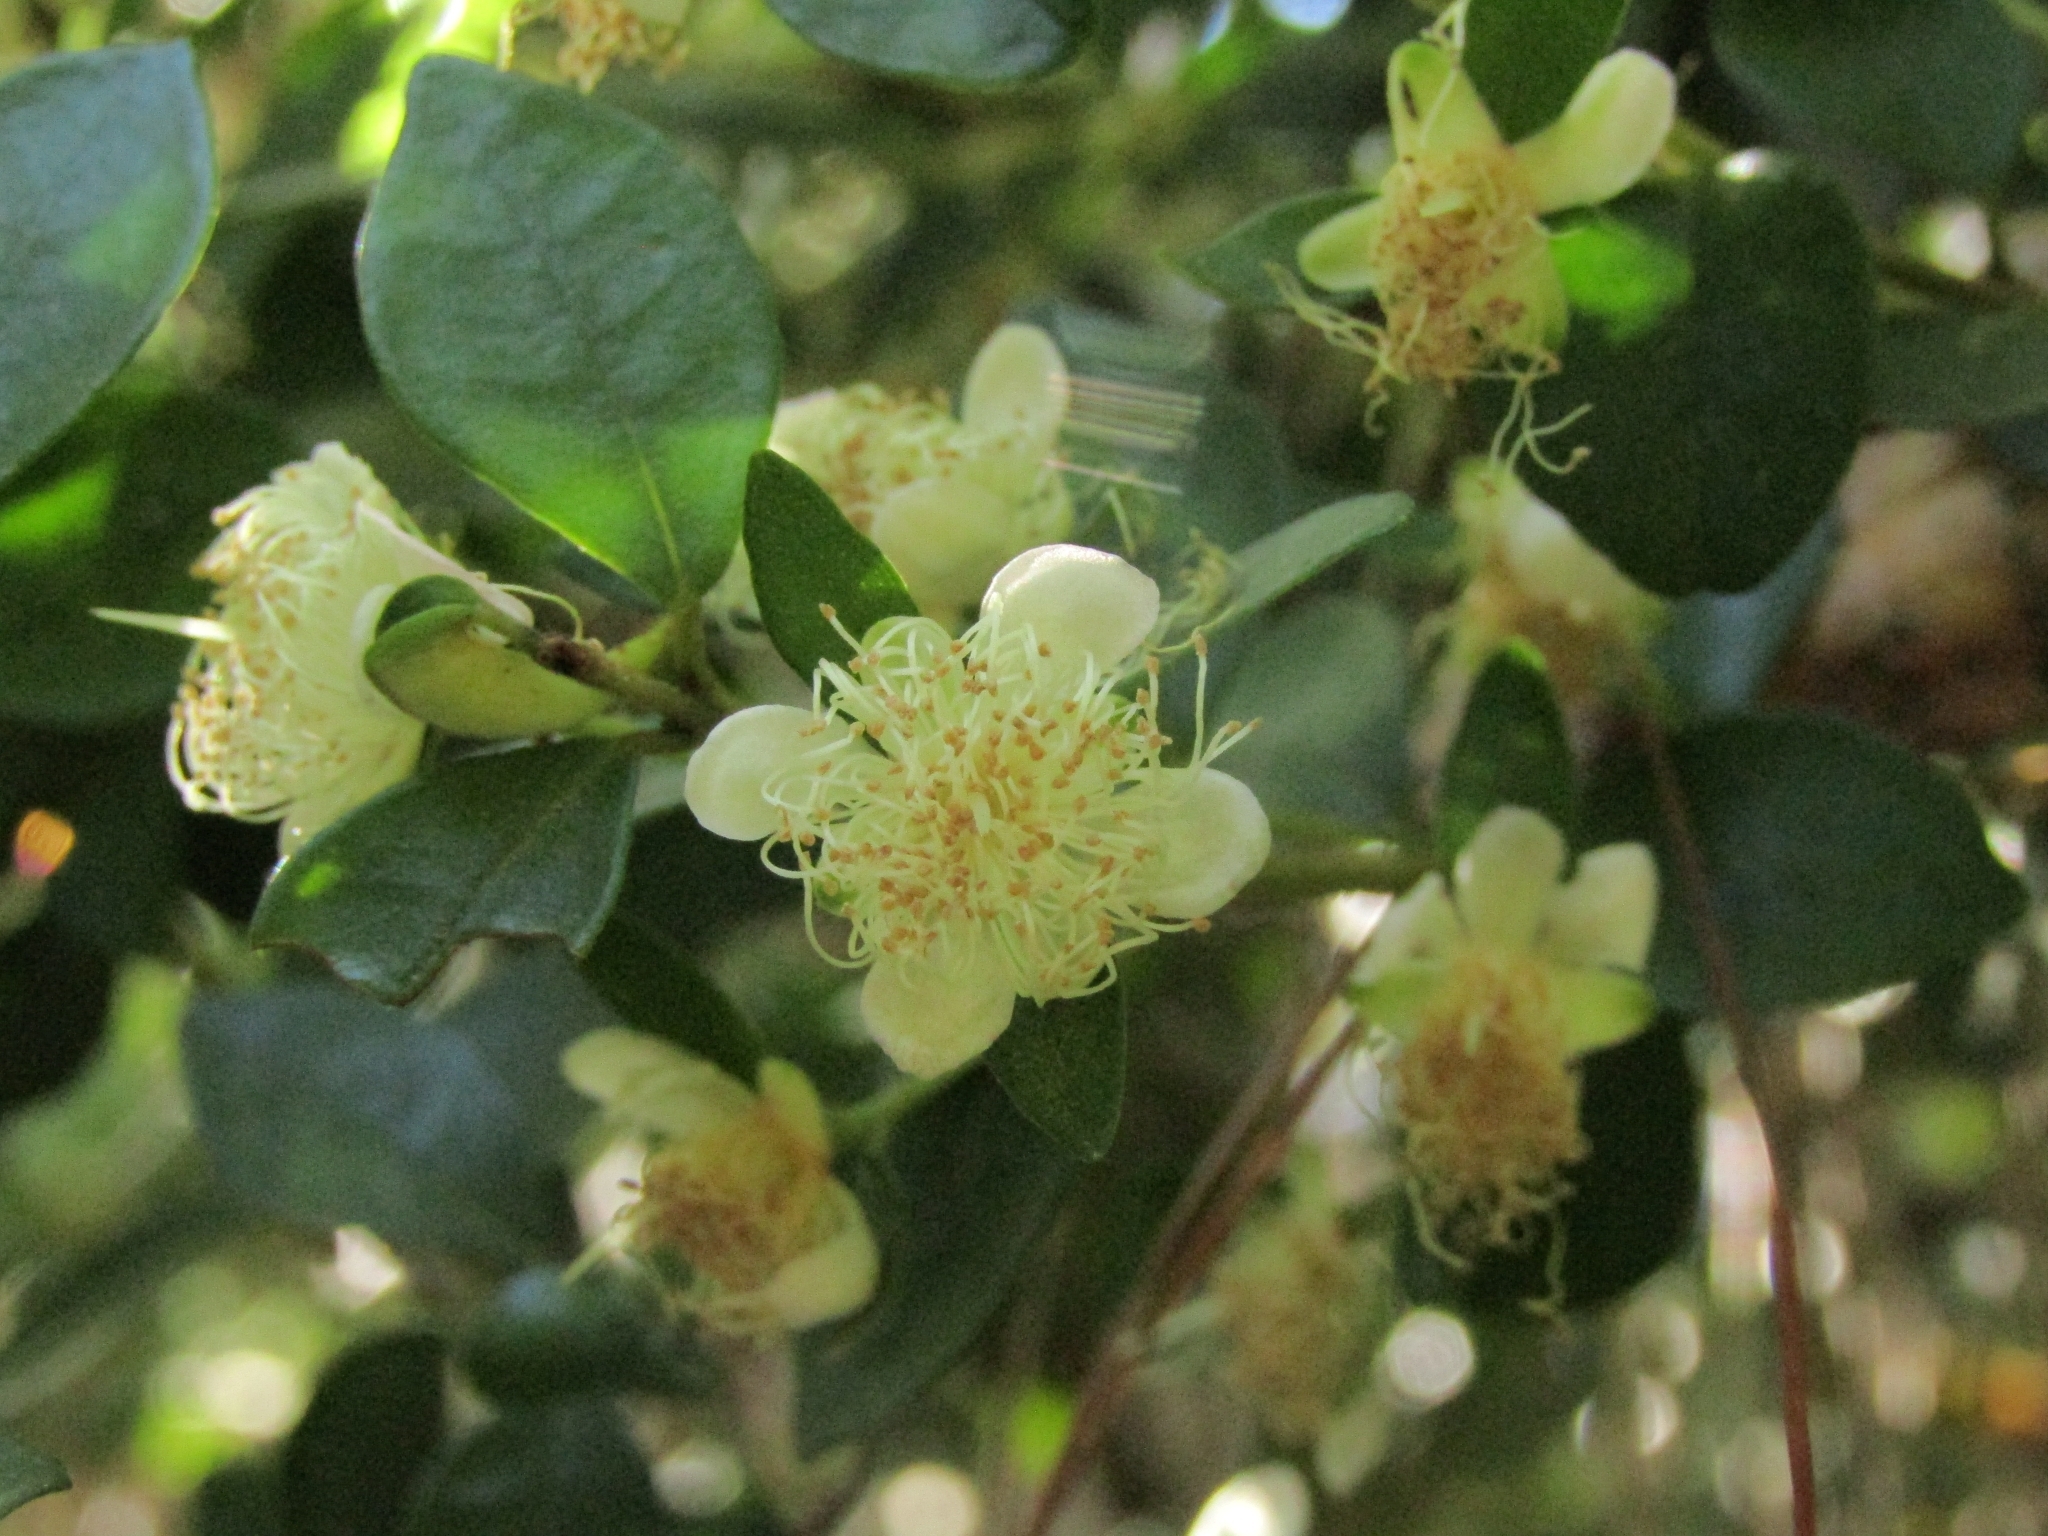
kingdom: Plantae
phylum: Tracheophyta
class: Magnoliopsida
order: Myrtales
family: Myrtaceae
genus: Myrceugenia
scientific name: Myrceugenia obtusa
